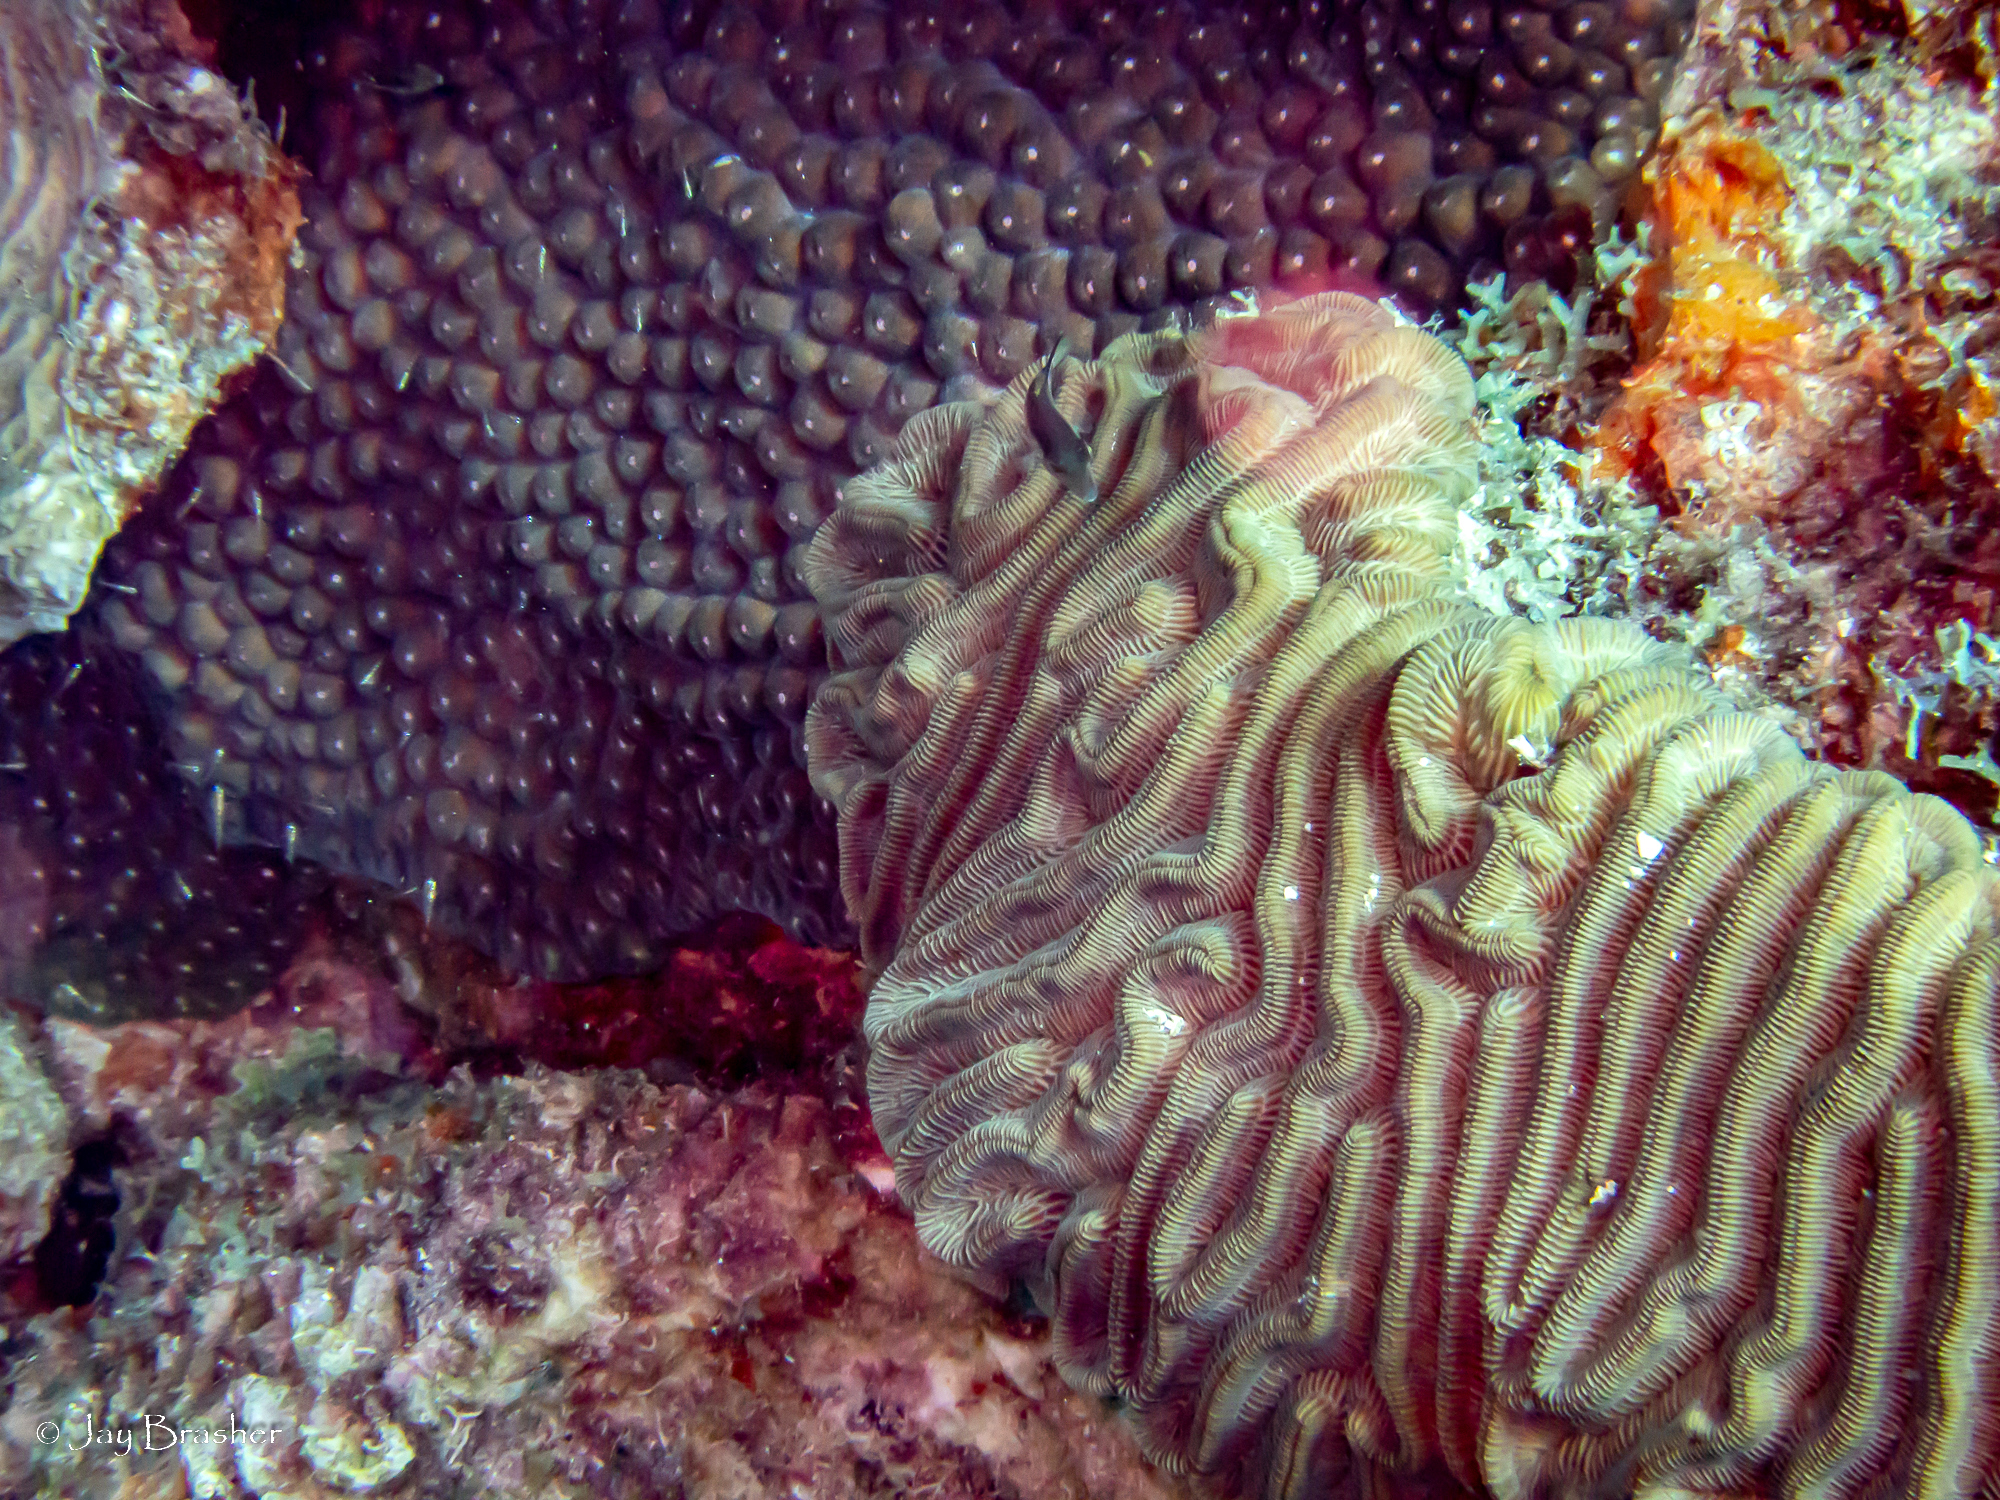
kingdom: Animalia
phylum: Chordata
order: Tetraodontiformes
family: Tetraodontidae
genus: Canthigaster
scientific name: Canthigaster rostrata
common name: Caribbean sharpnose-puffer
